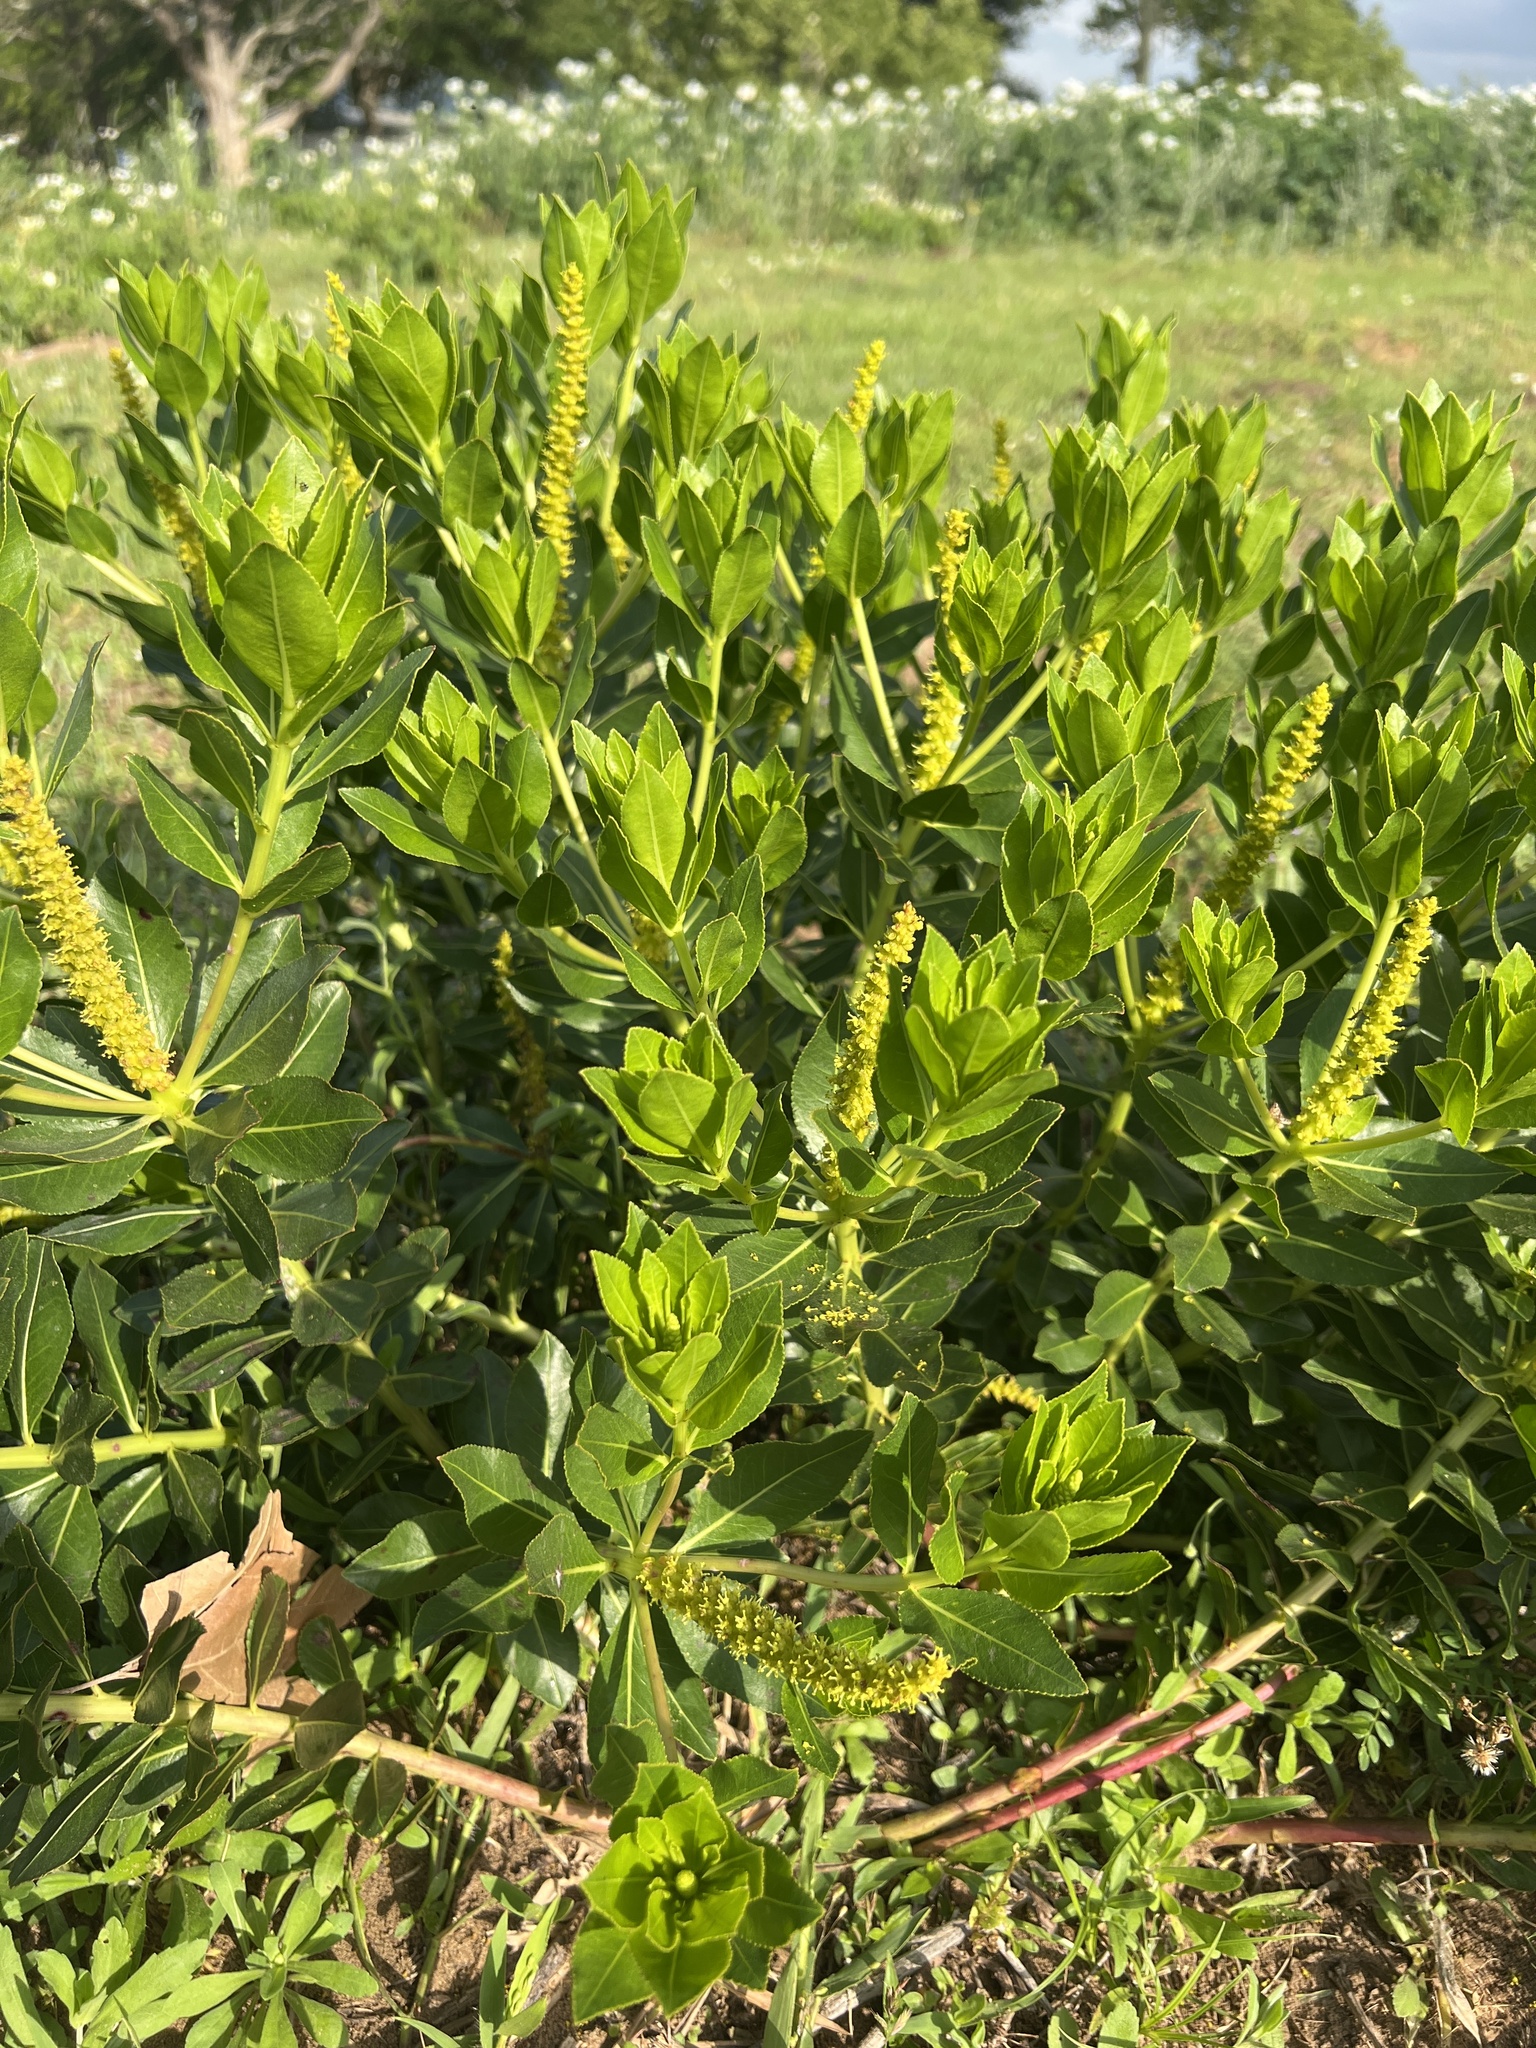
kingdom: Plantae
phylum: Tracheophyta
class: Magnoliopsida
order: Malpighiales
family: Euphorbiaceae
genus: Stillingia
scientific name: Stillingia sylvatica
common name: Queen's-delight
